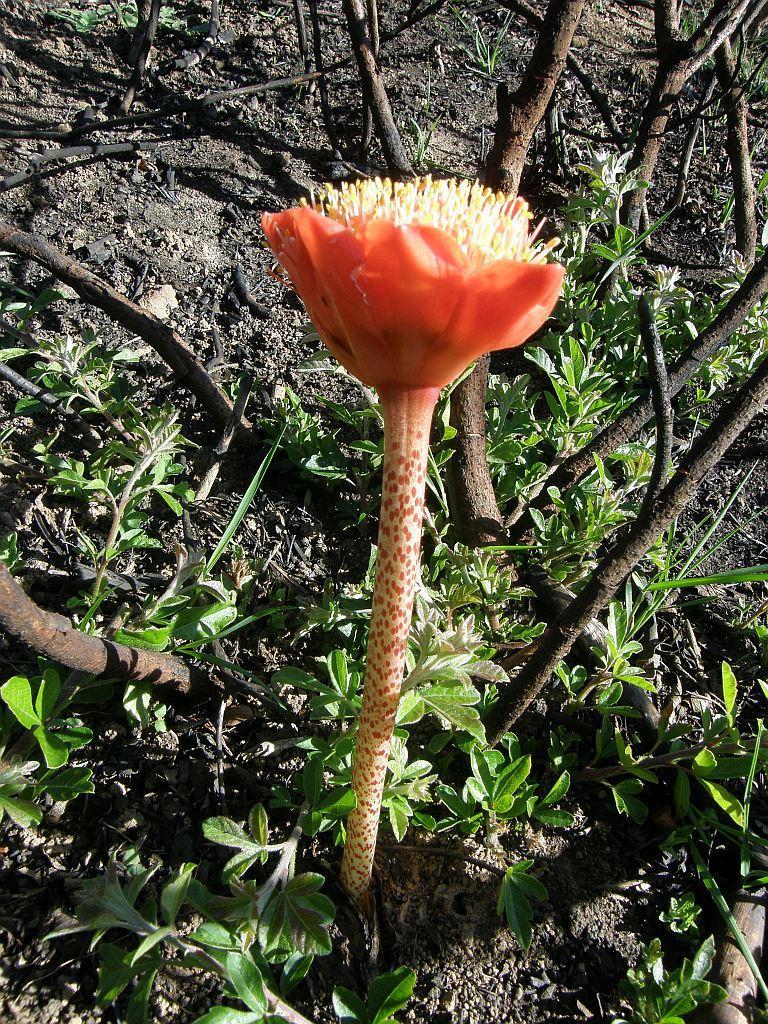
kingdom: Plantae
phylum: Tracheophyta
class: Liliopsida
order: Asparagales
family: Amaryllidaceae
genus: Haemanthus
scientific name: Haemanthus coccineus
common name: Cape-tulip
